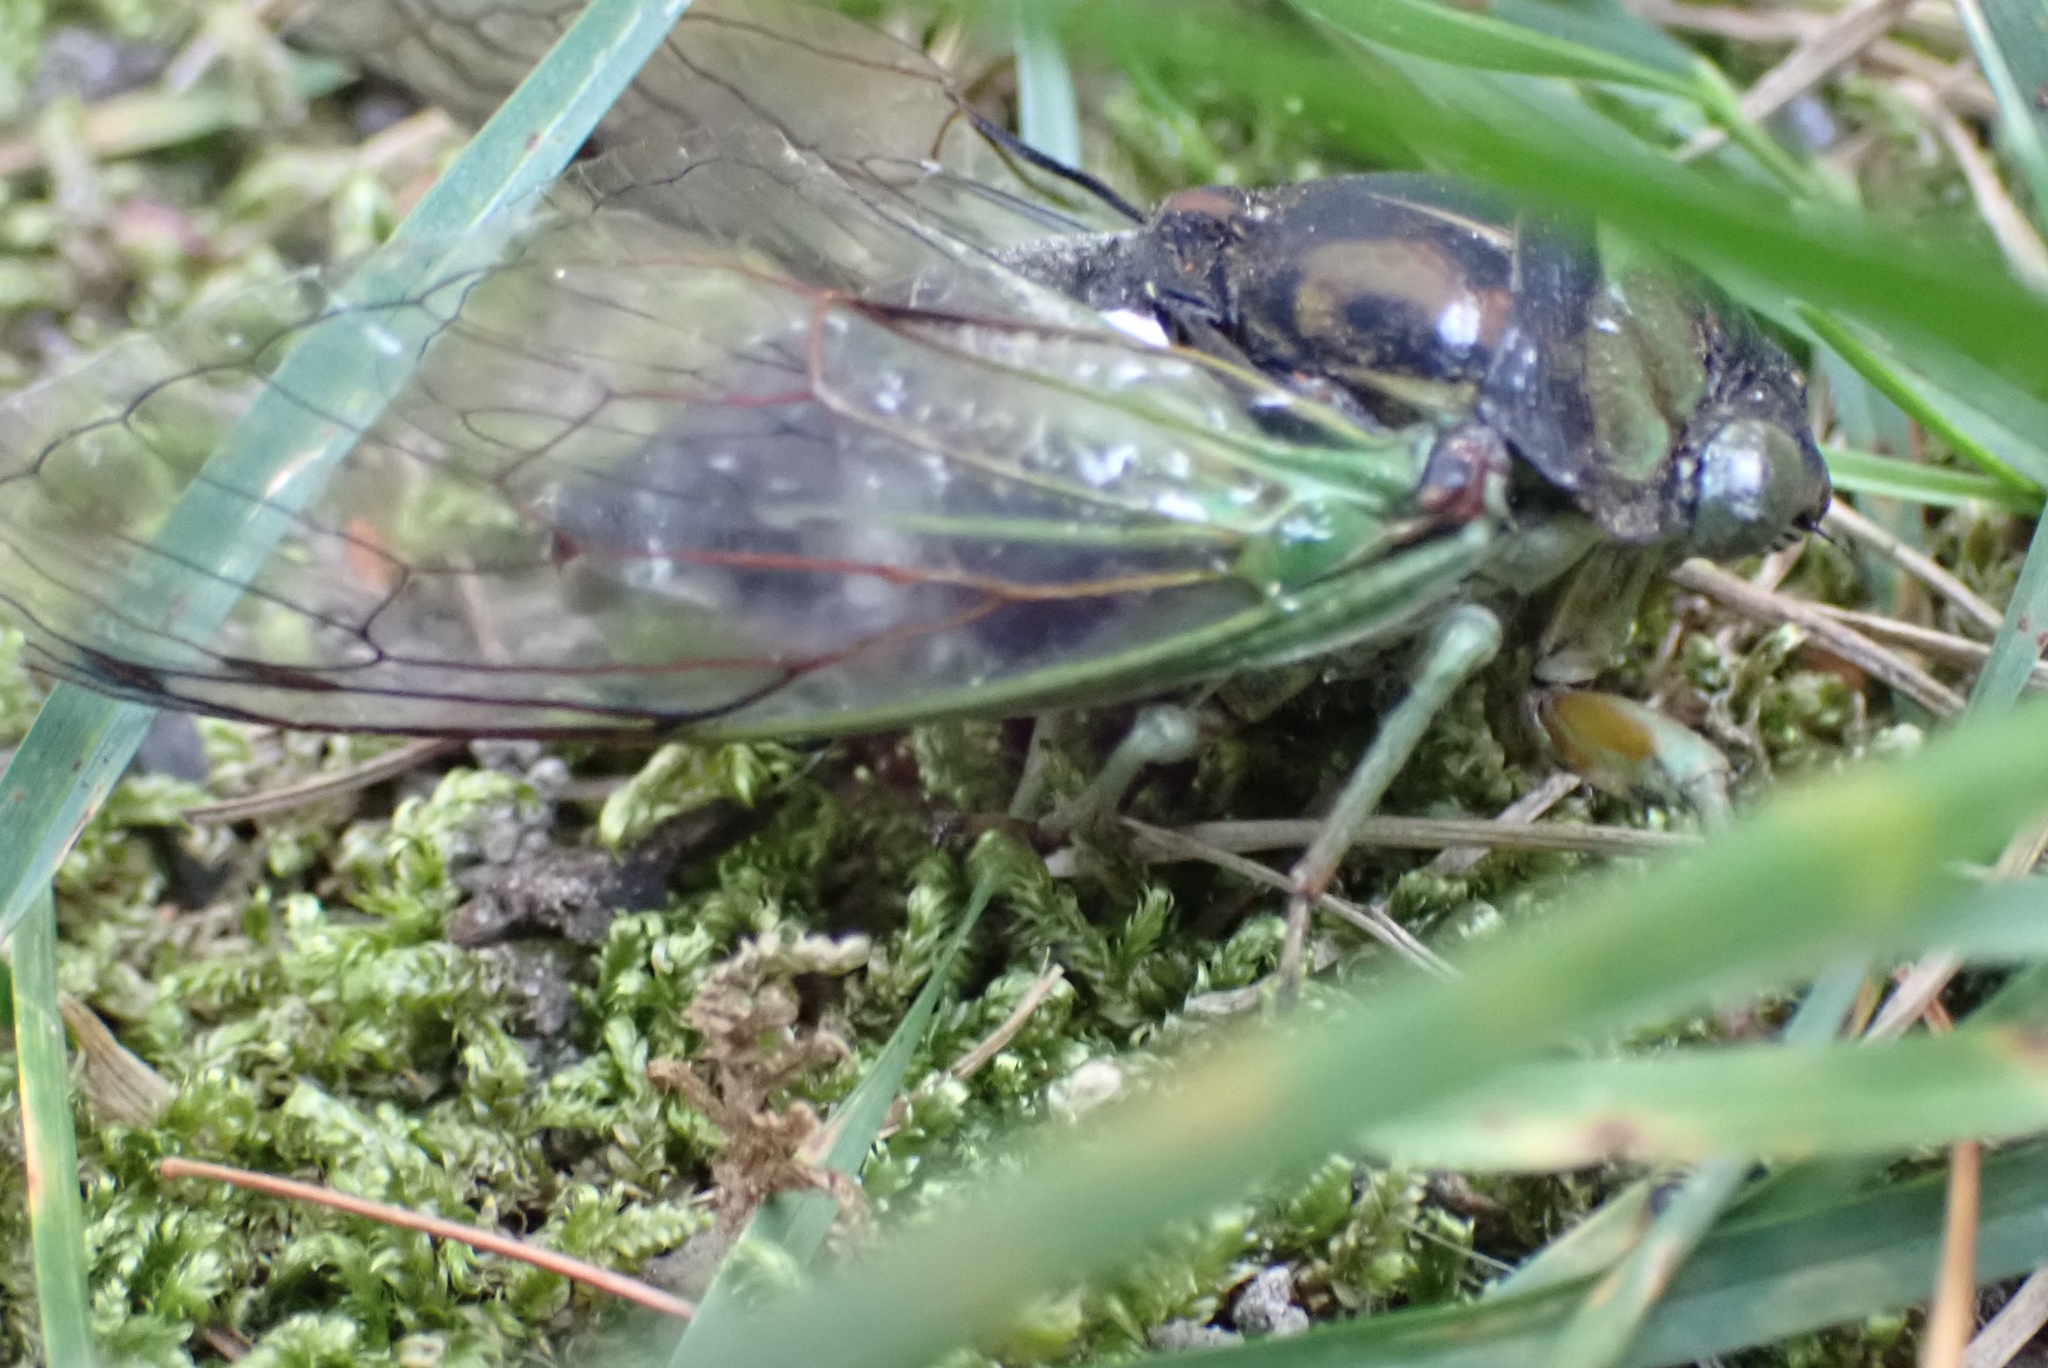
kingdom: Animalia
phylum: Arthropoda
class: Insecta
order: Hemiptera
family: Cicadidae
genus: Neotibicen
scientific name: Neotibicen tibicen
